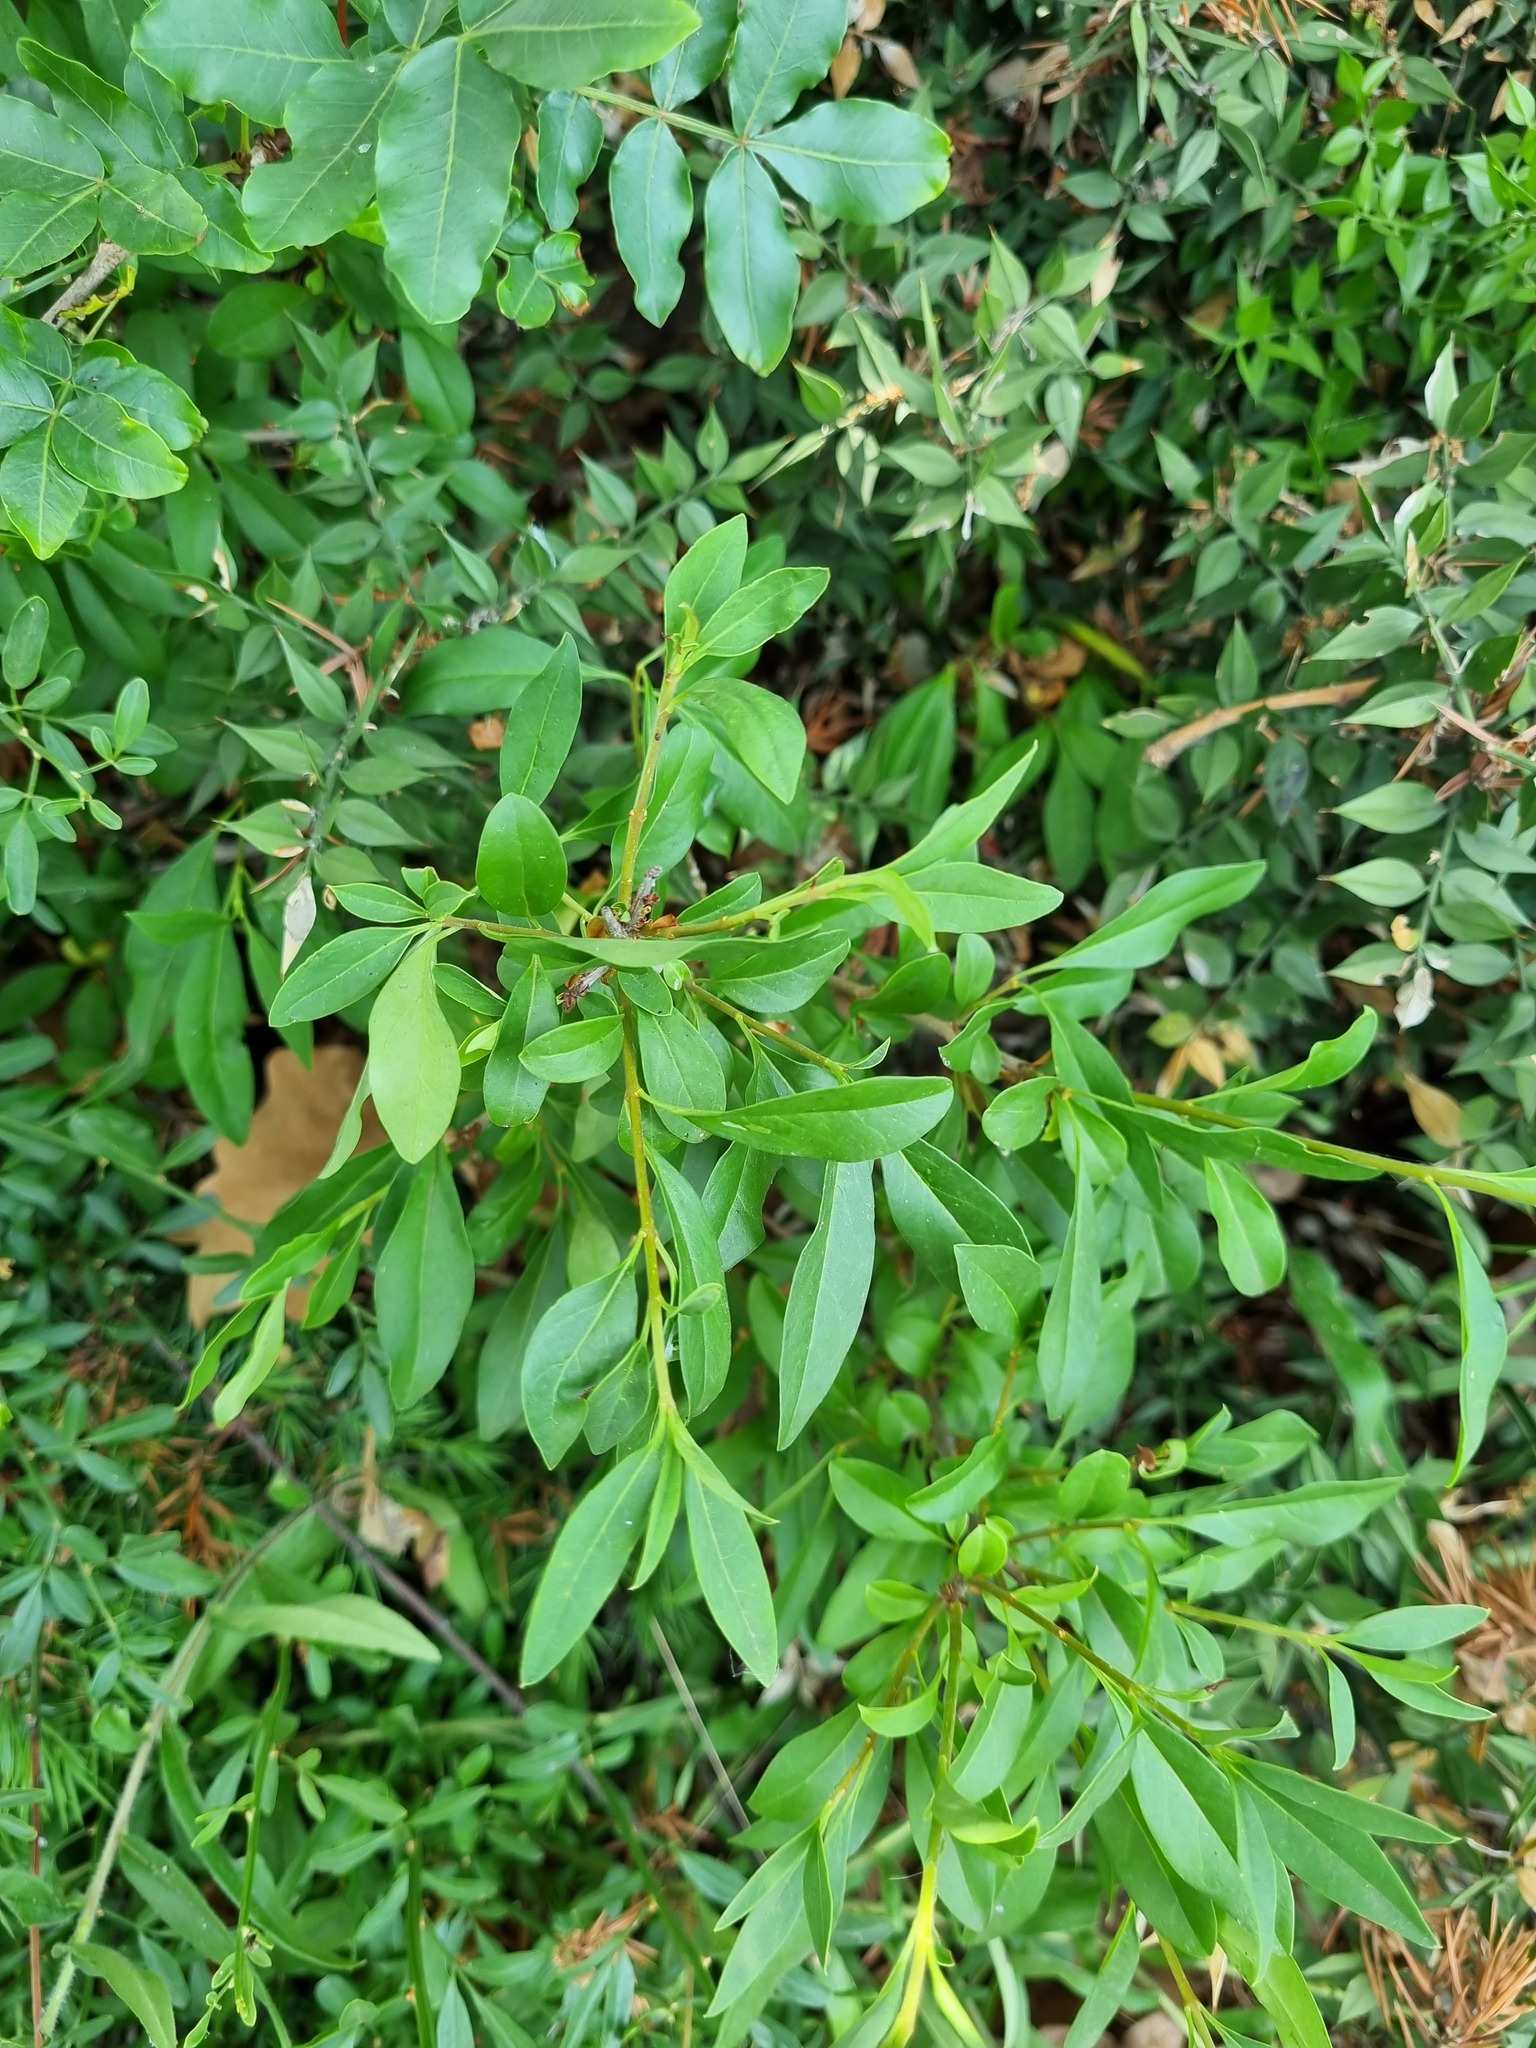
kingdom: Plantae
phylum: Tracheophyta
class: Magnoliopsida
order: Lamiales
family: Oleaceae
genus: Ligustrum
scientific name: Ligustrum vulgare
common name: Wild privet
